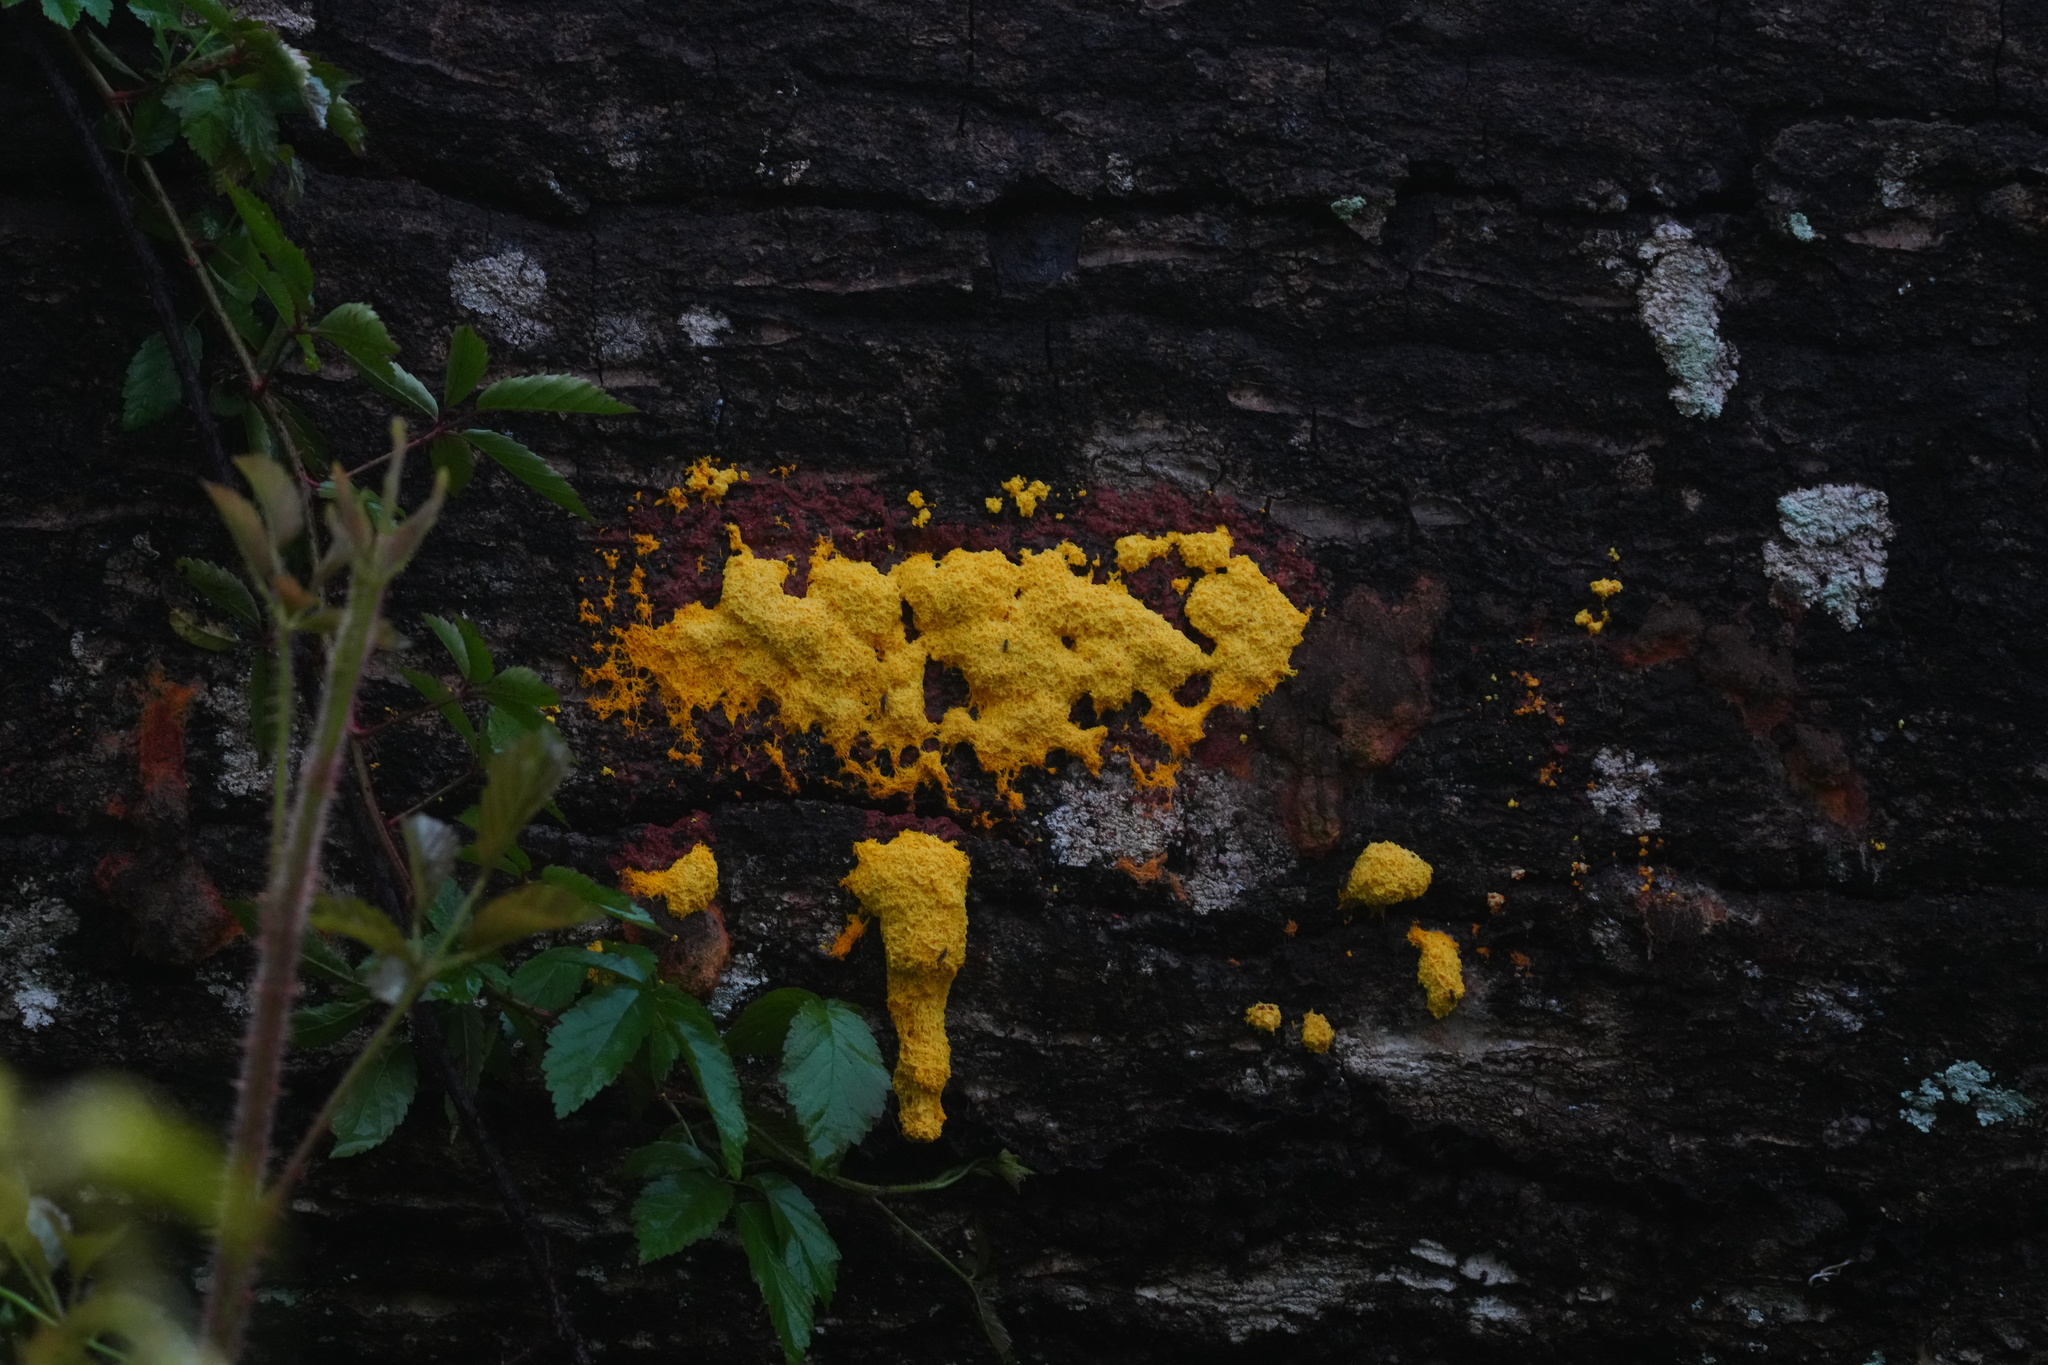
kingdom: Protozoa
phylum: Mycetozoa
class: Myxomycetes
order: Physarales
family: Physaraceae
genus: Fuligo
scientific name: Fuligo septica
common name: Dog vomit slime mold
